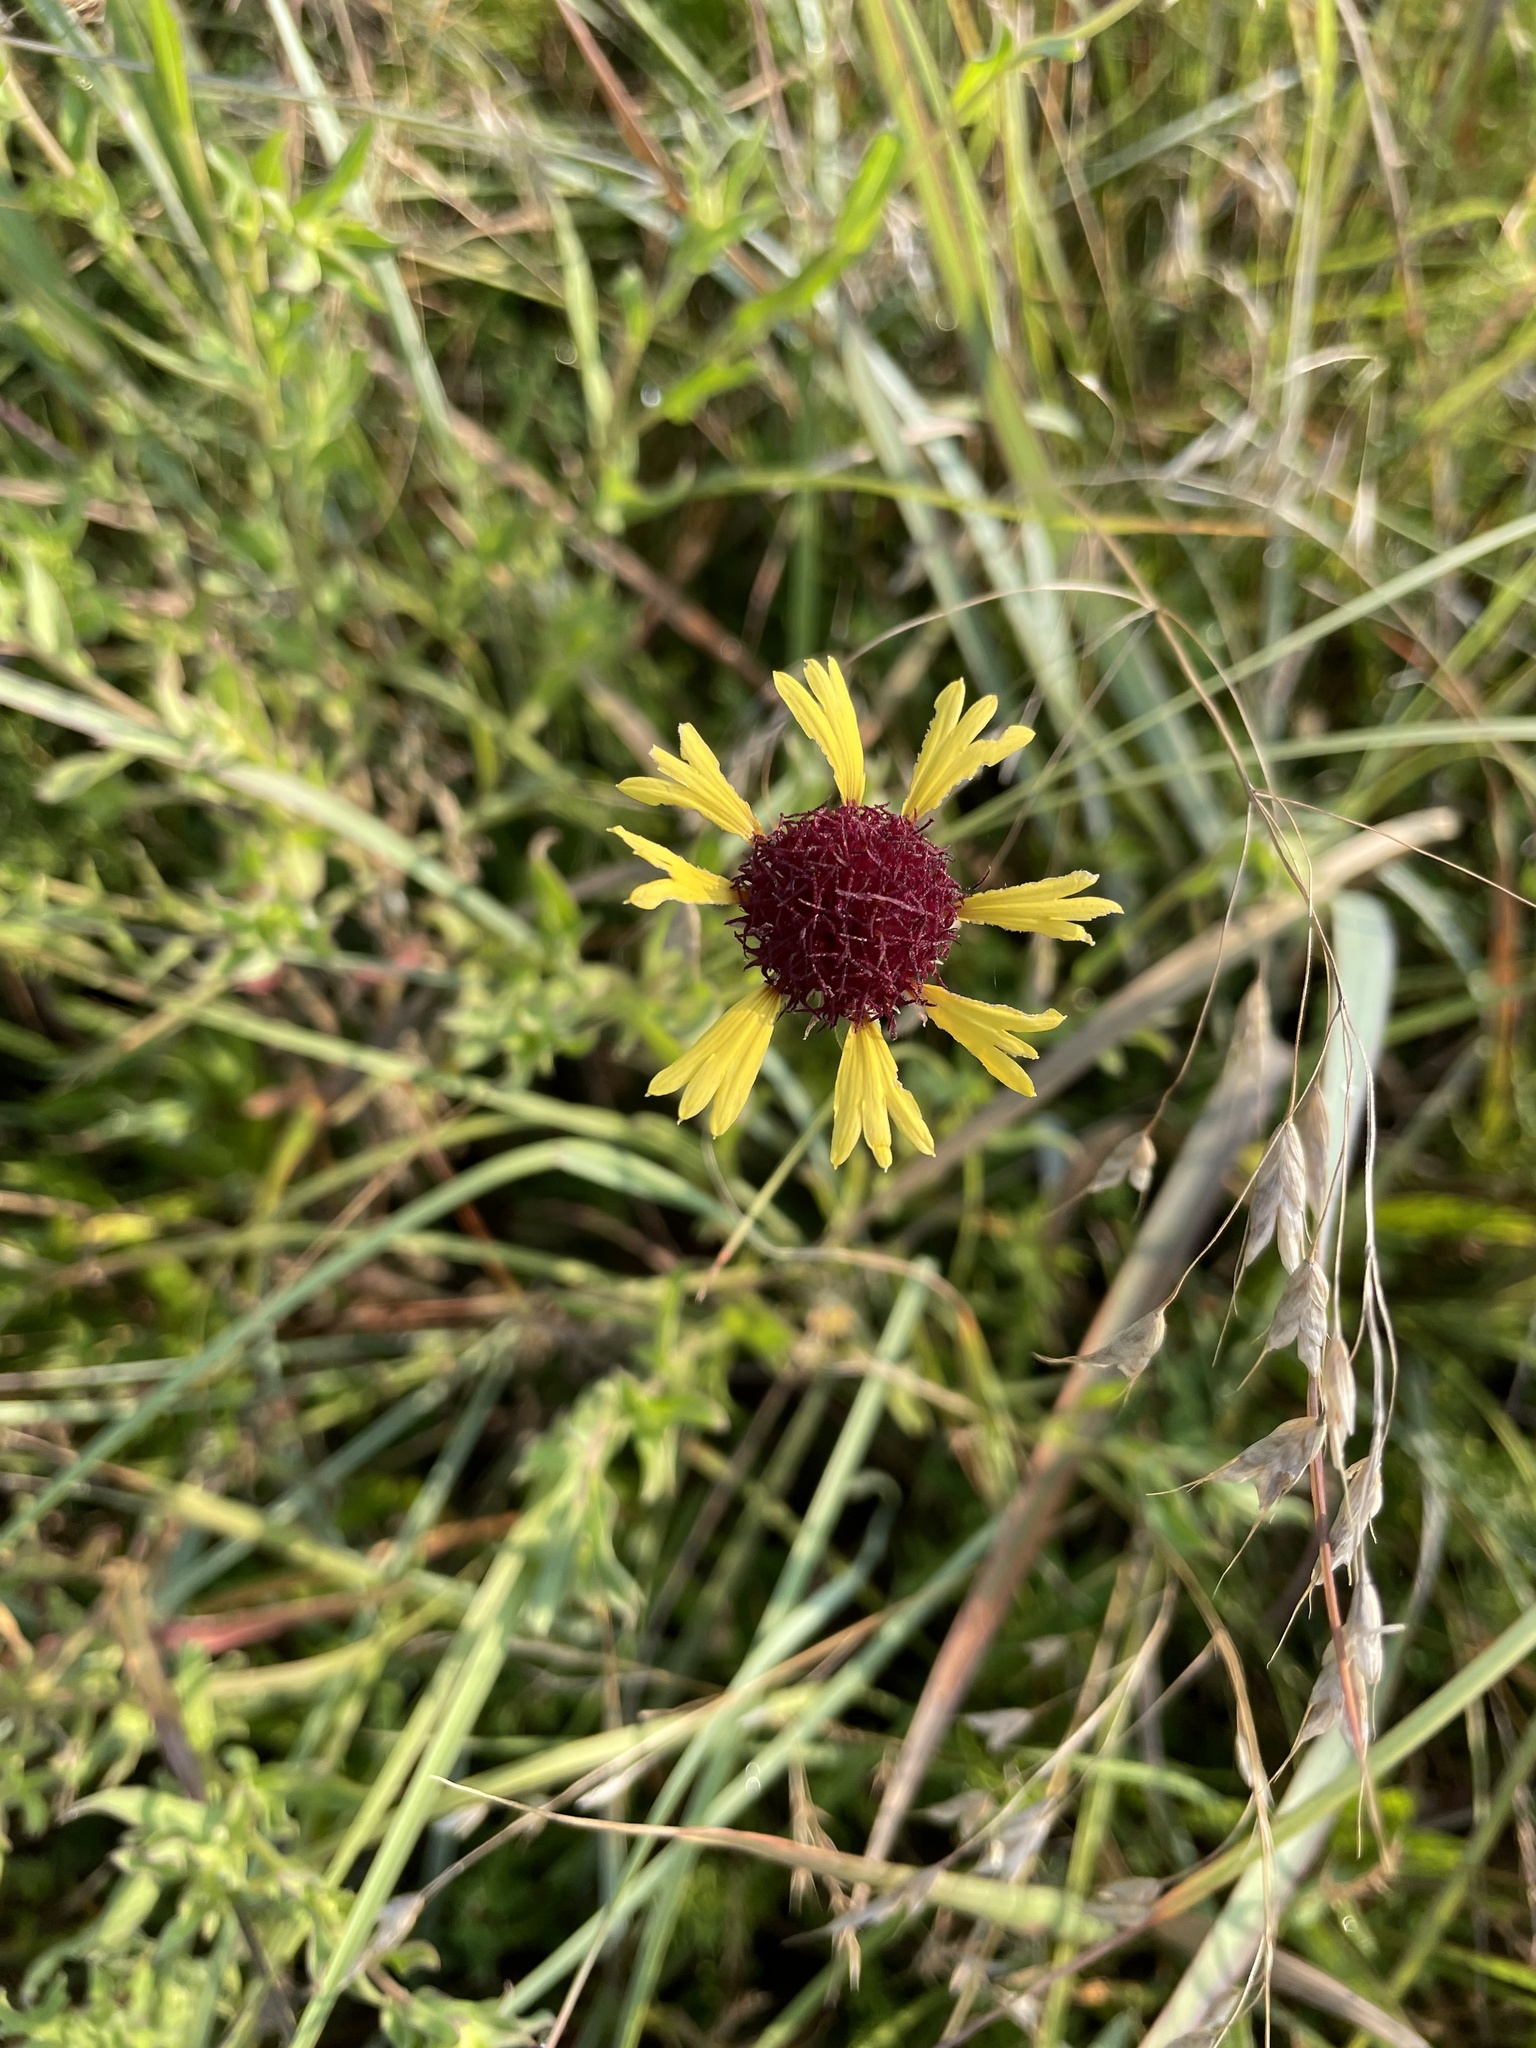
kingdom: Plantae
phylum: Tracheophyta
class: Magnoliopsida
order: Asterales
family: Asteraceae
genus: Gaillardia
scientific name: Gaillardia aestivalis
